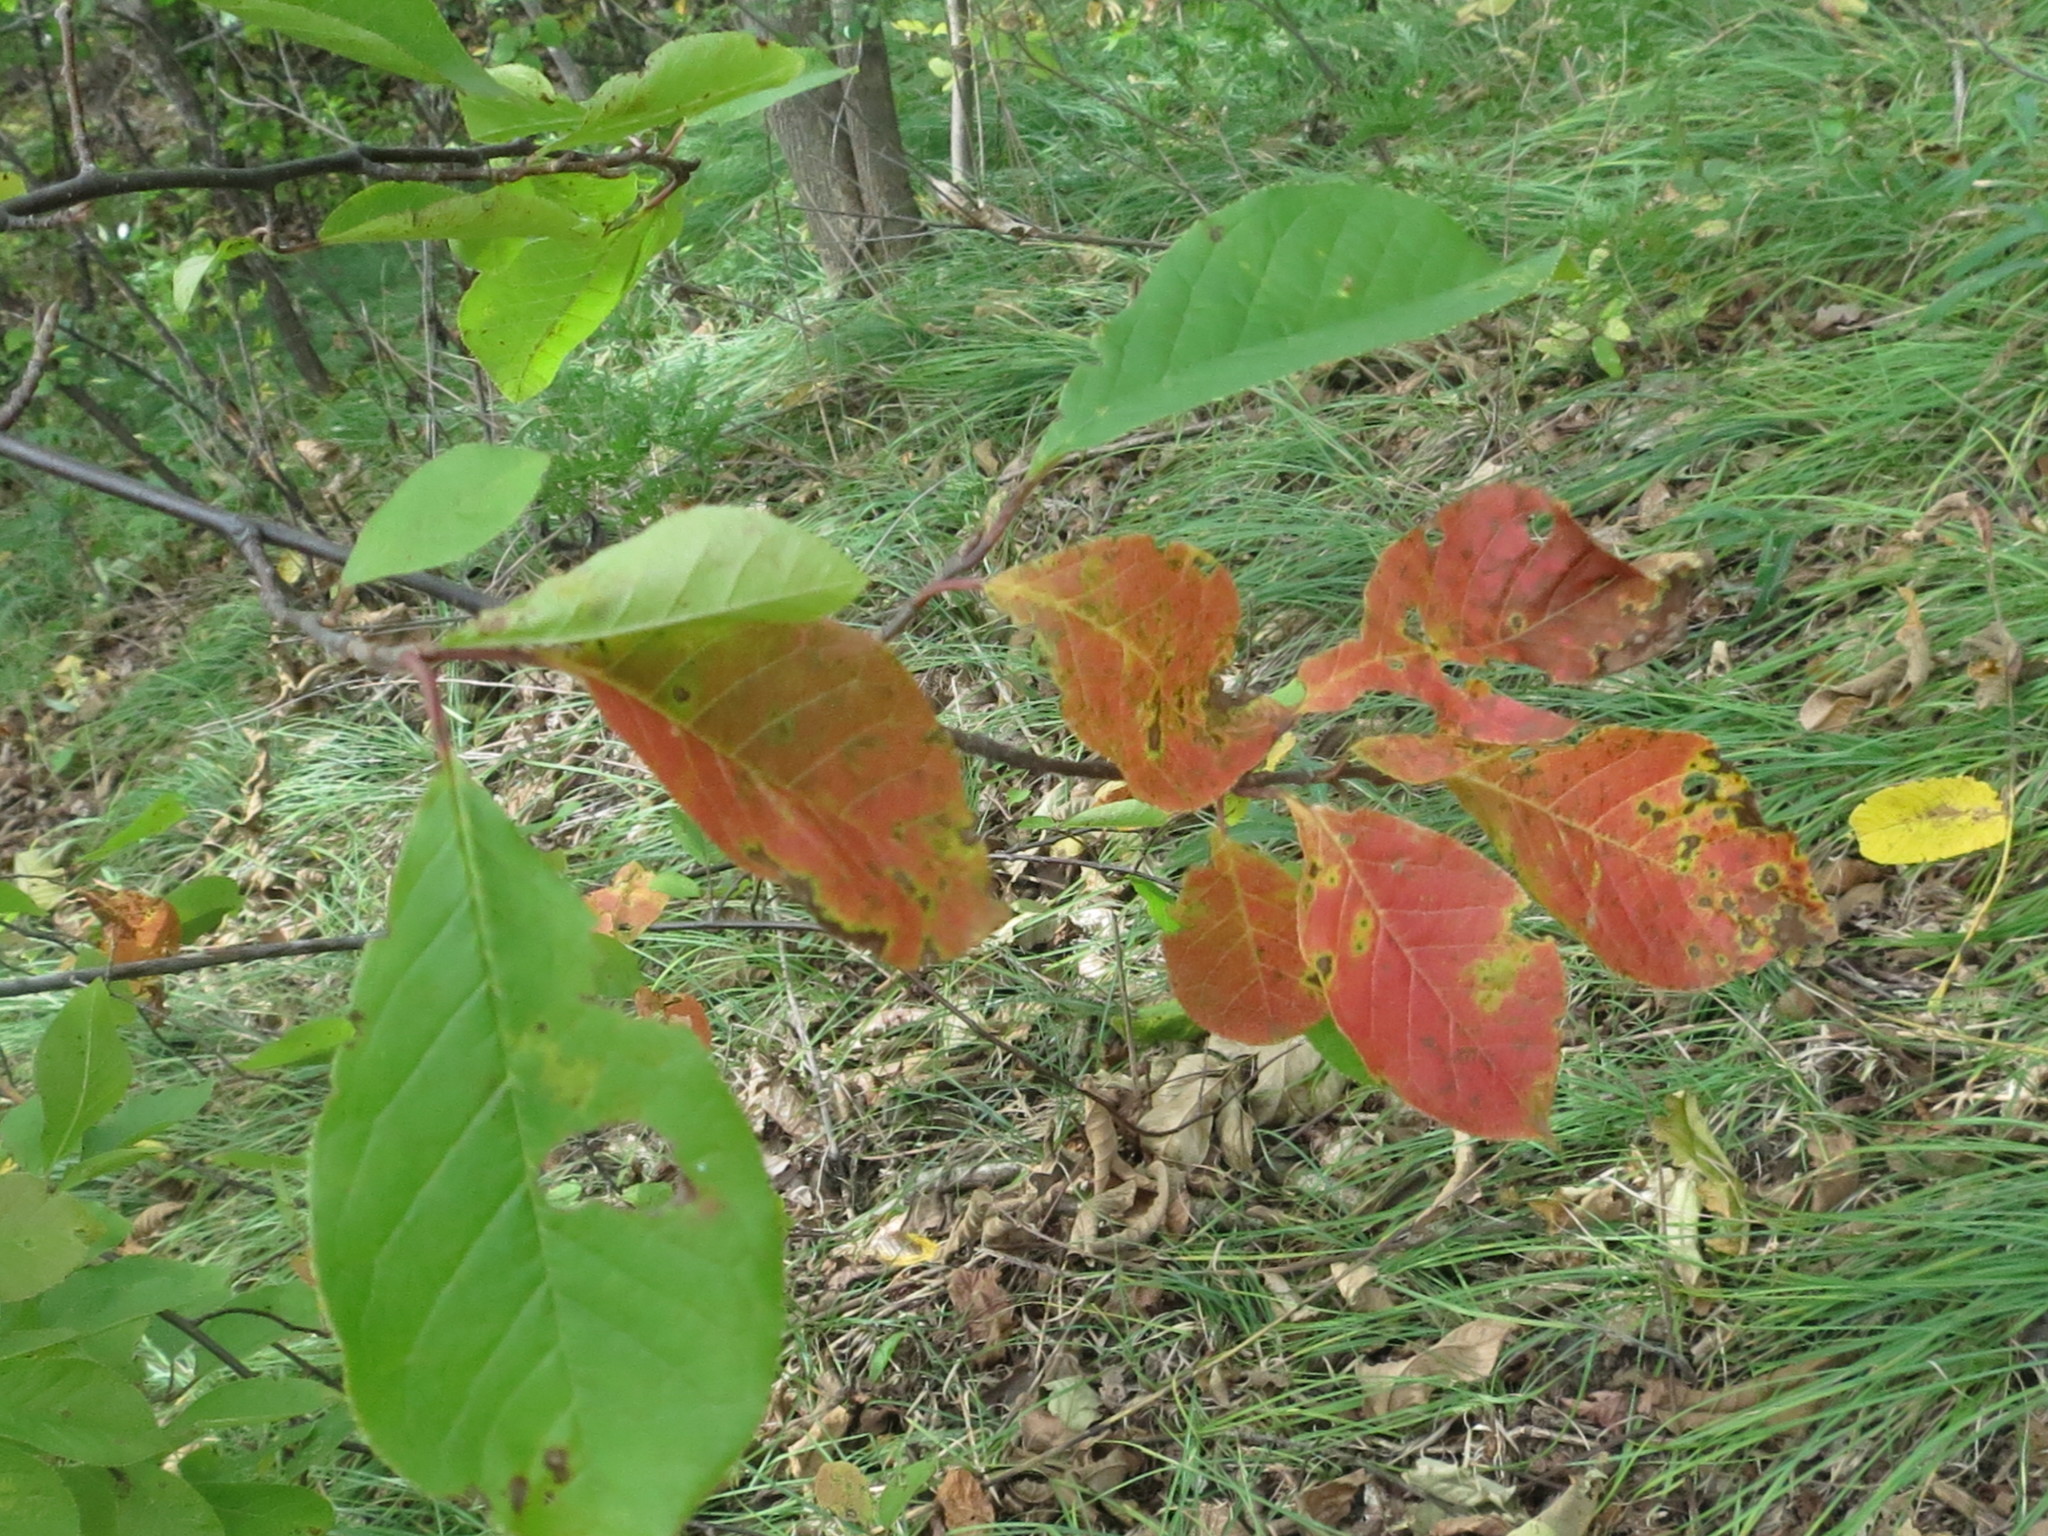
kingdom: Plantae
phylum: Tracheophyta
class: Magnoliopsida
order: Rosales
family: Rosaceae
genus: Prunus
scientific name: Prunus padus
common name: Bird cherry
